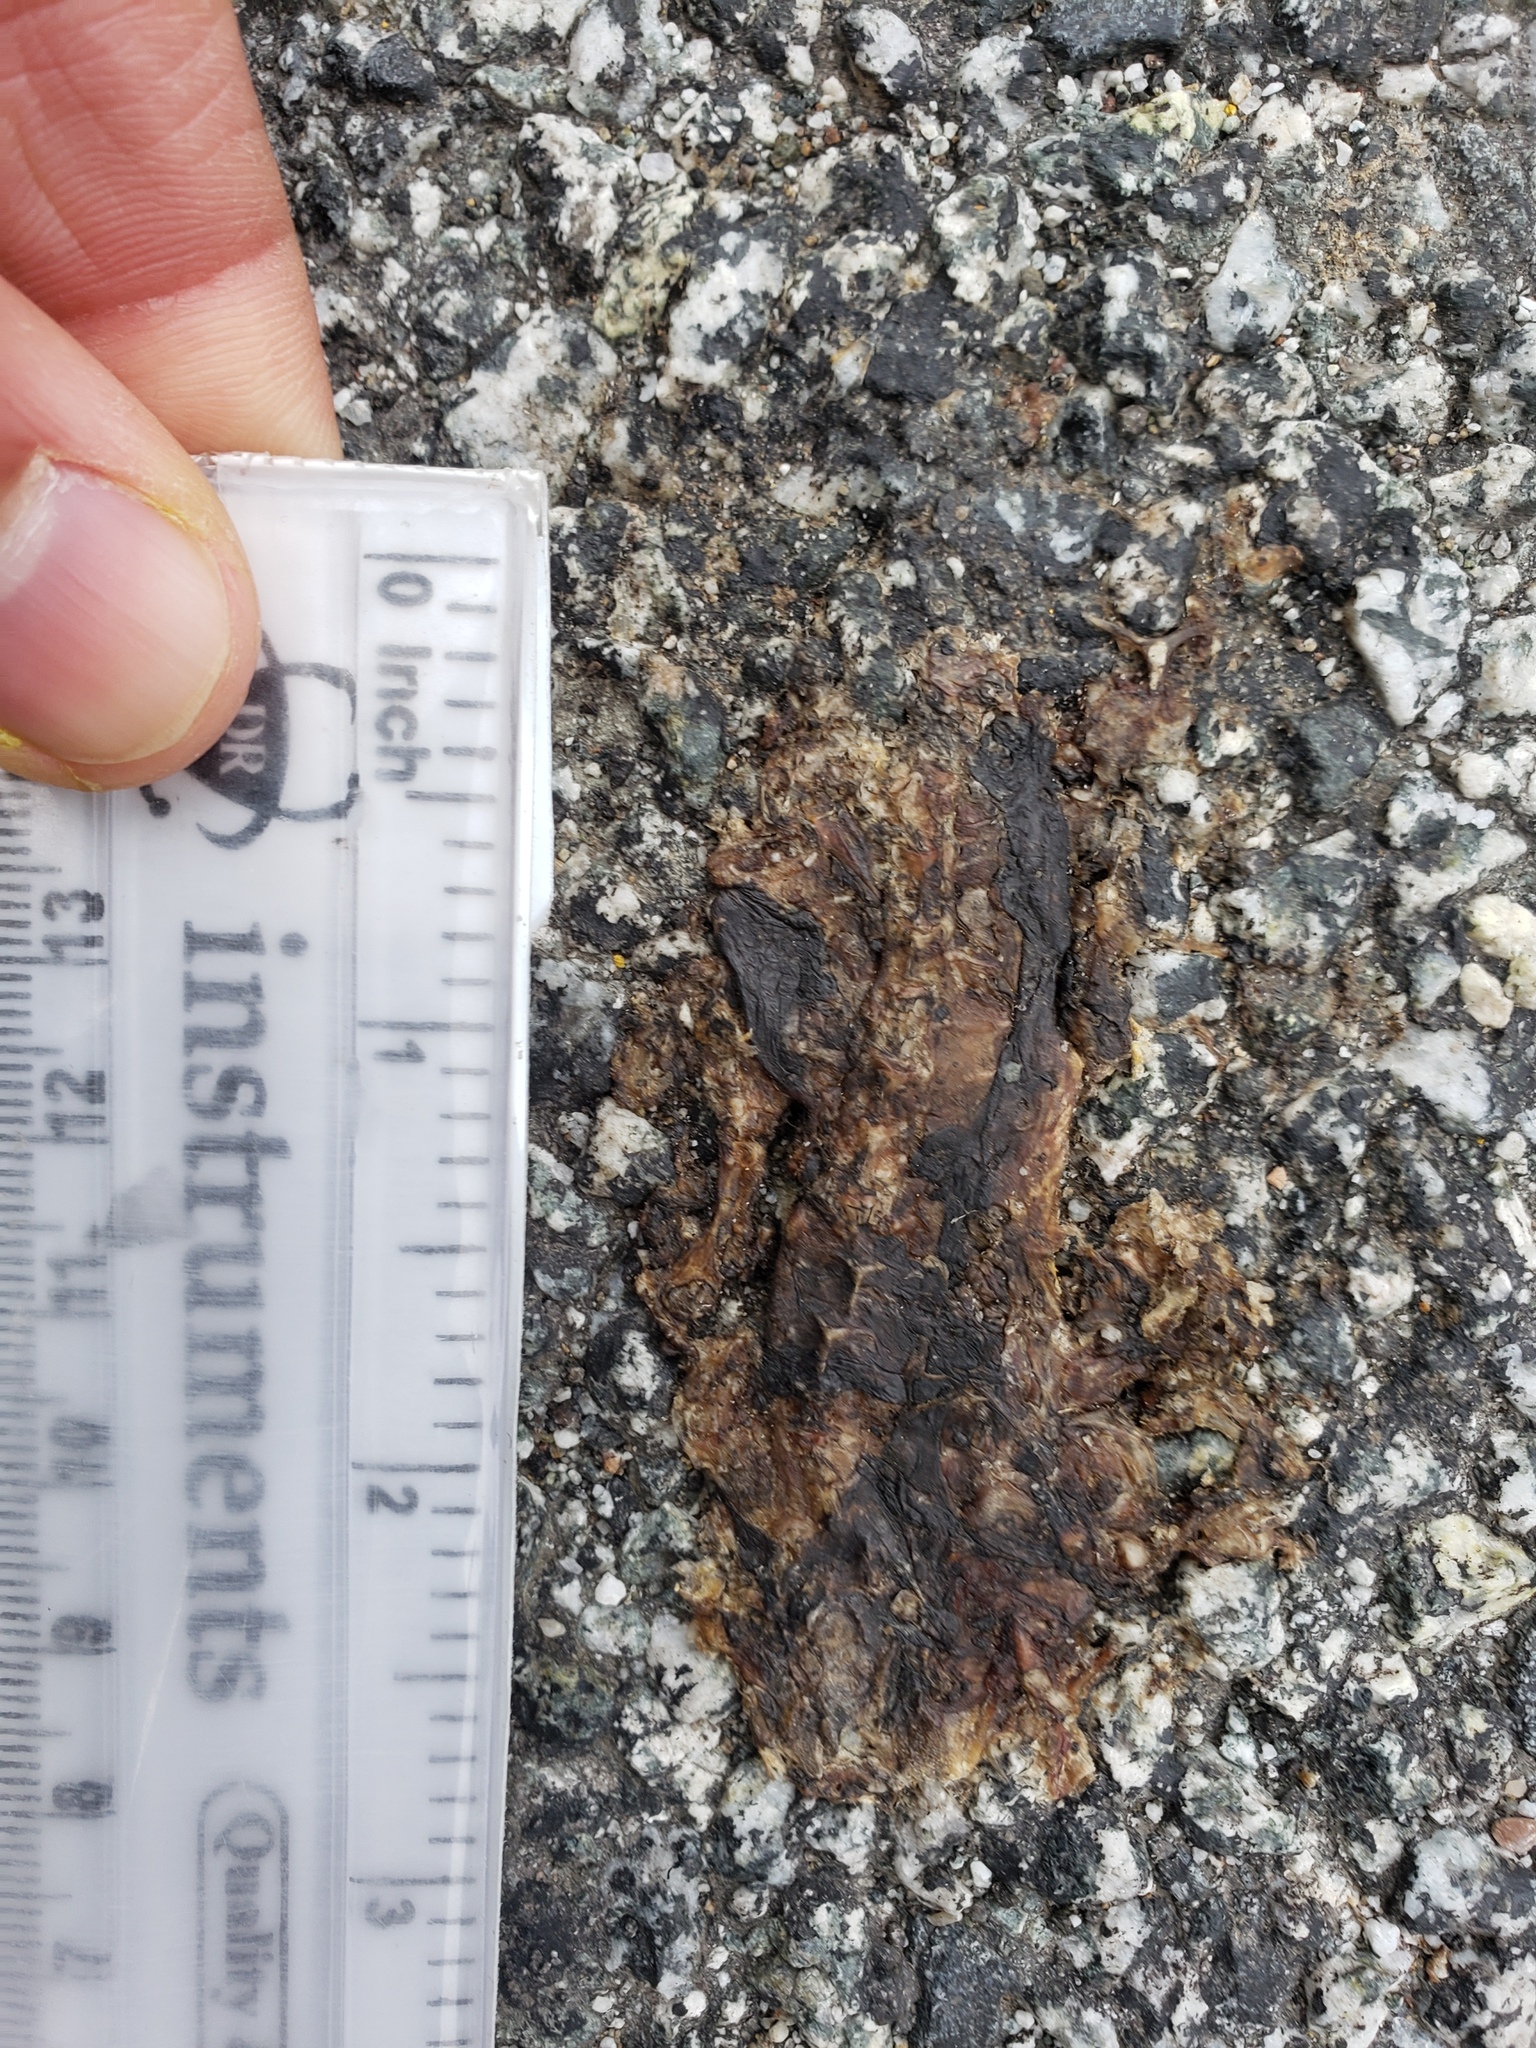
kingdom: Animalia
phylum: Chordata
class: Amphibia
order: Caudata
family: Salamandridae
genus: Taricha
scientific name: Taricha
